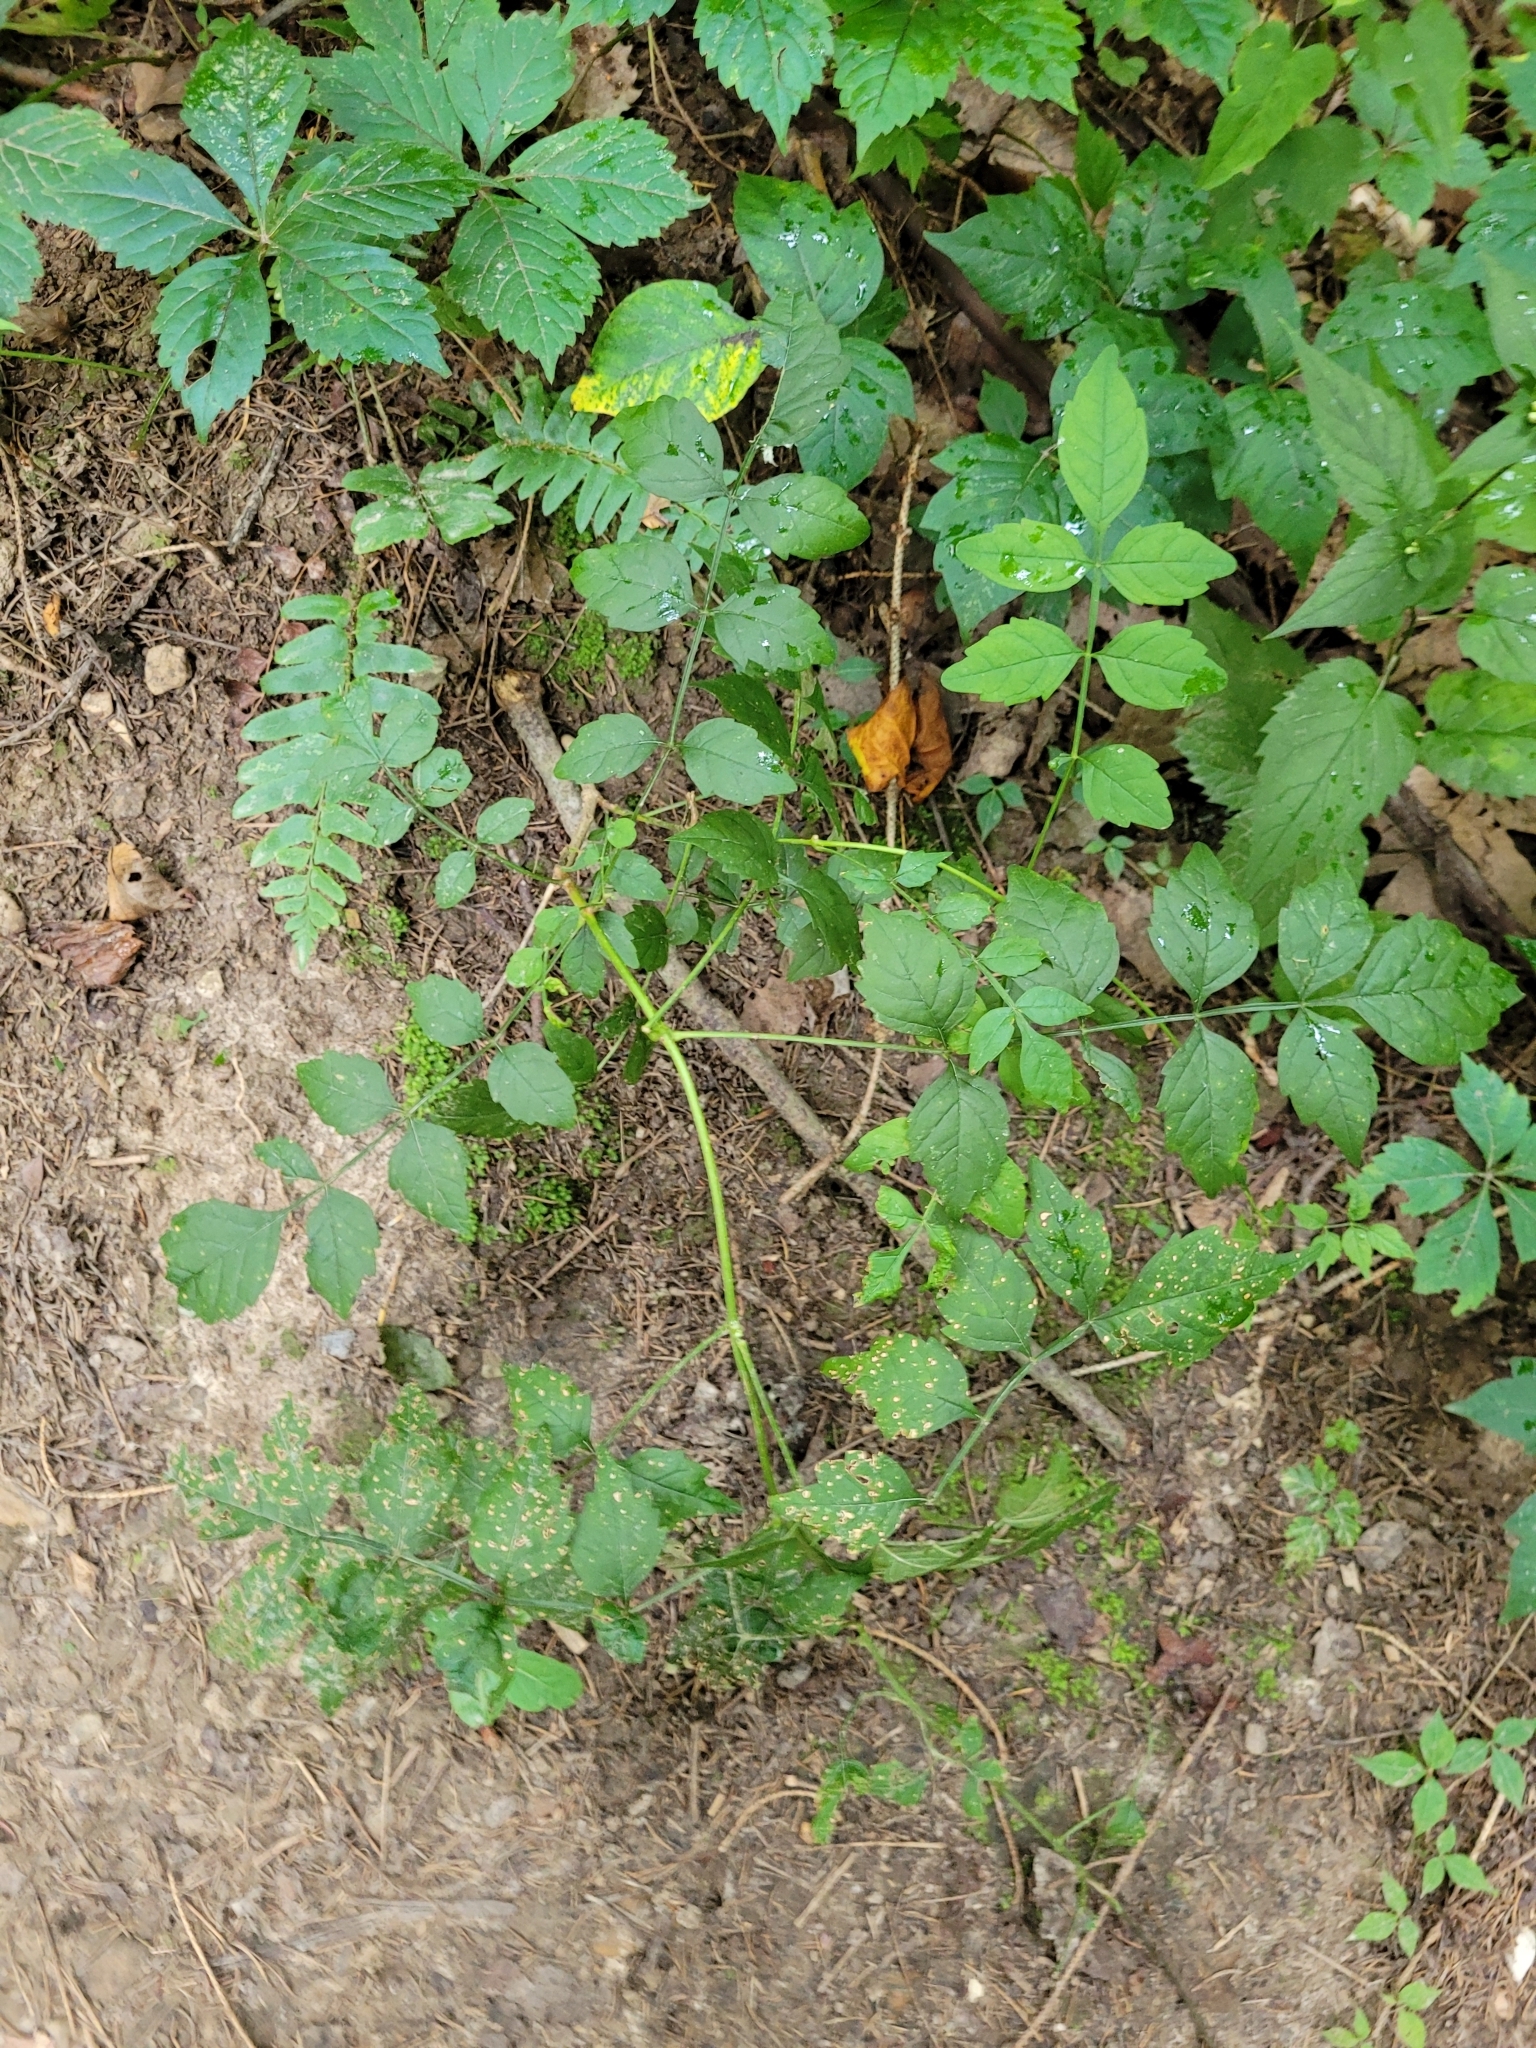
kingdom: Plantae
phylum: Tracheophyta
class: Magnoliopsida
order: Lamiales
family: Bignoniaceae
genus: Campsis
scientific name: Campsis radicans
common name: Trumpet-creeper
